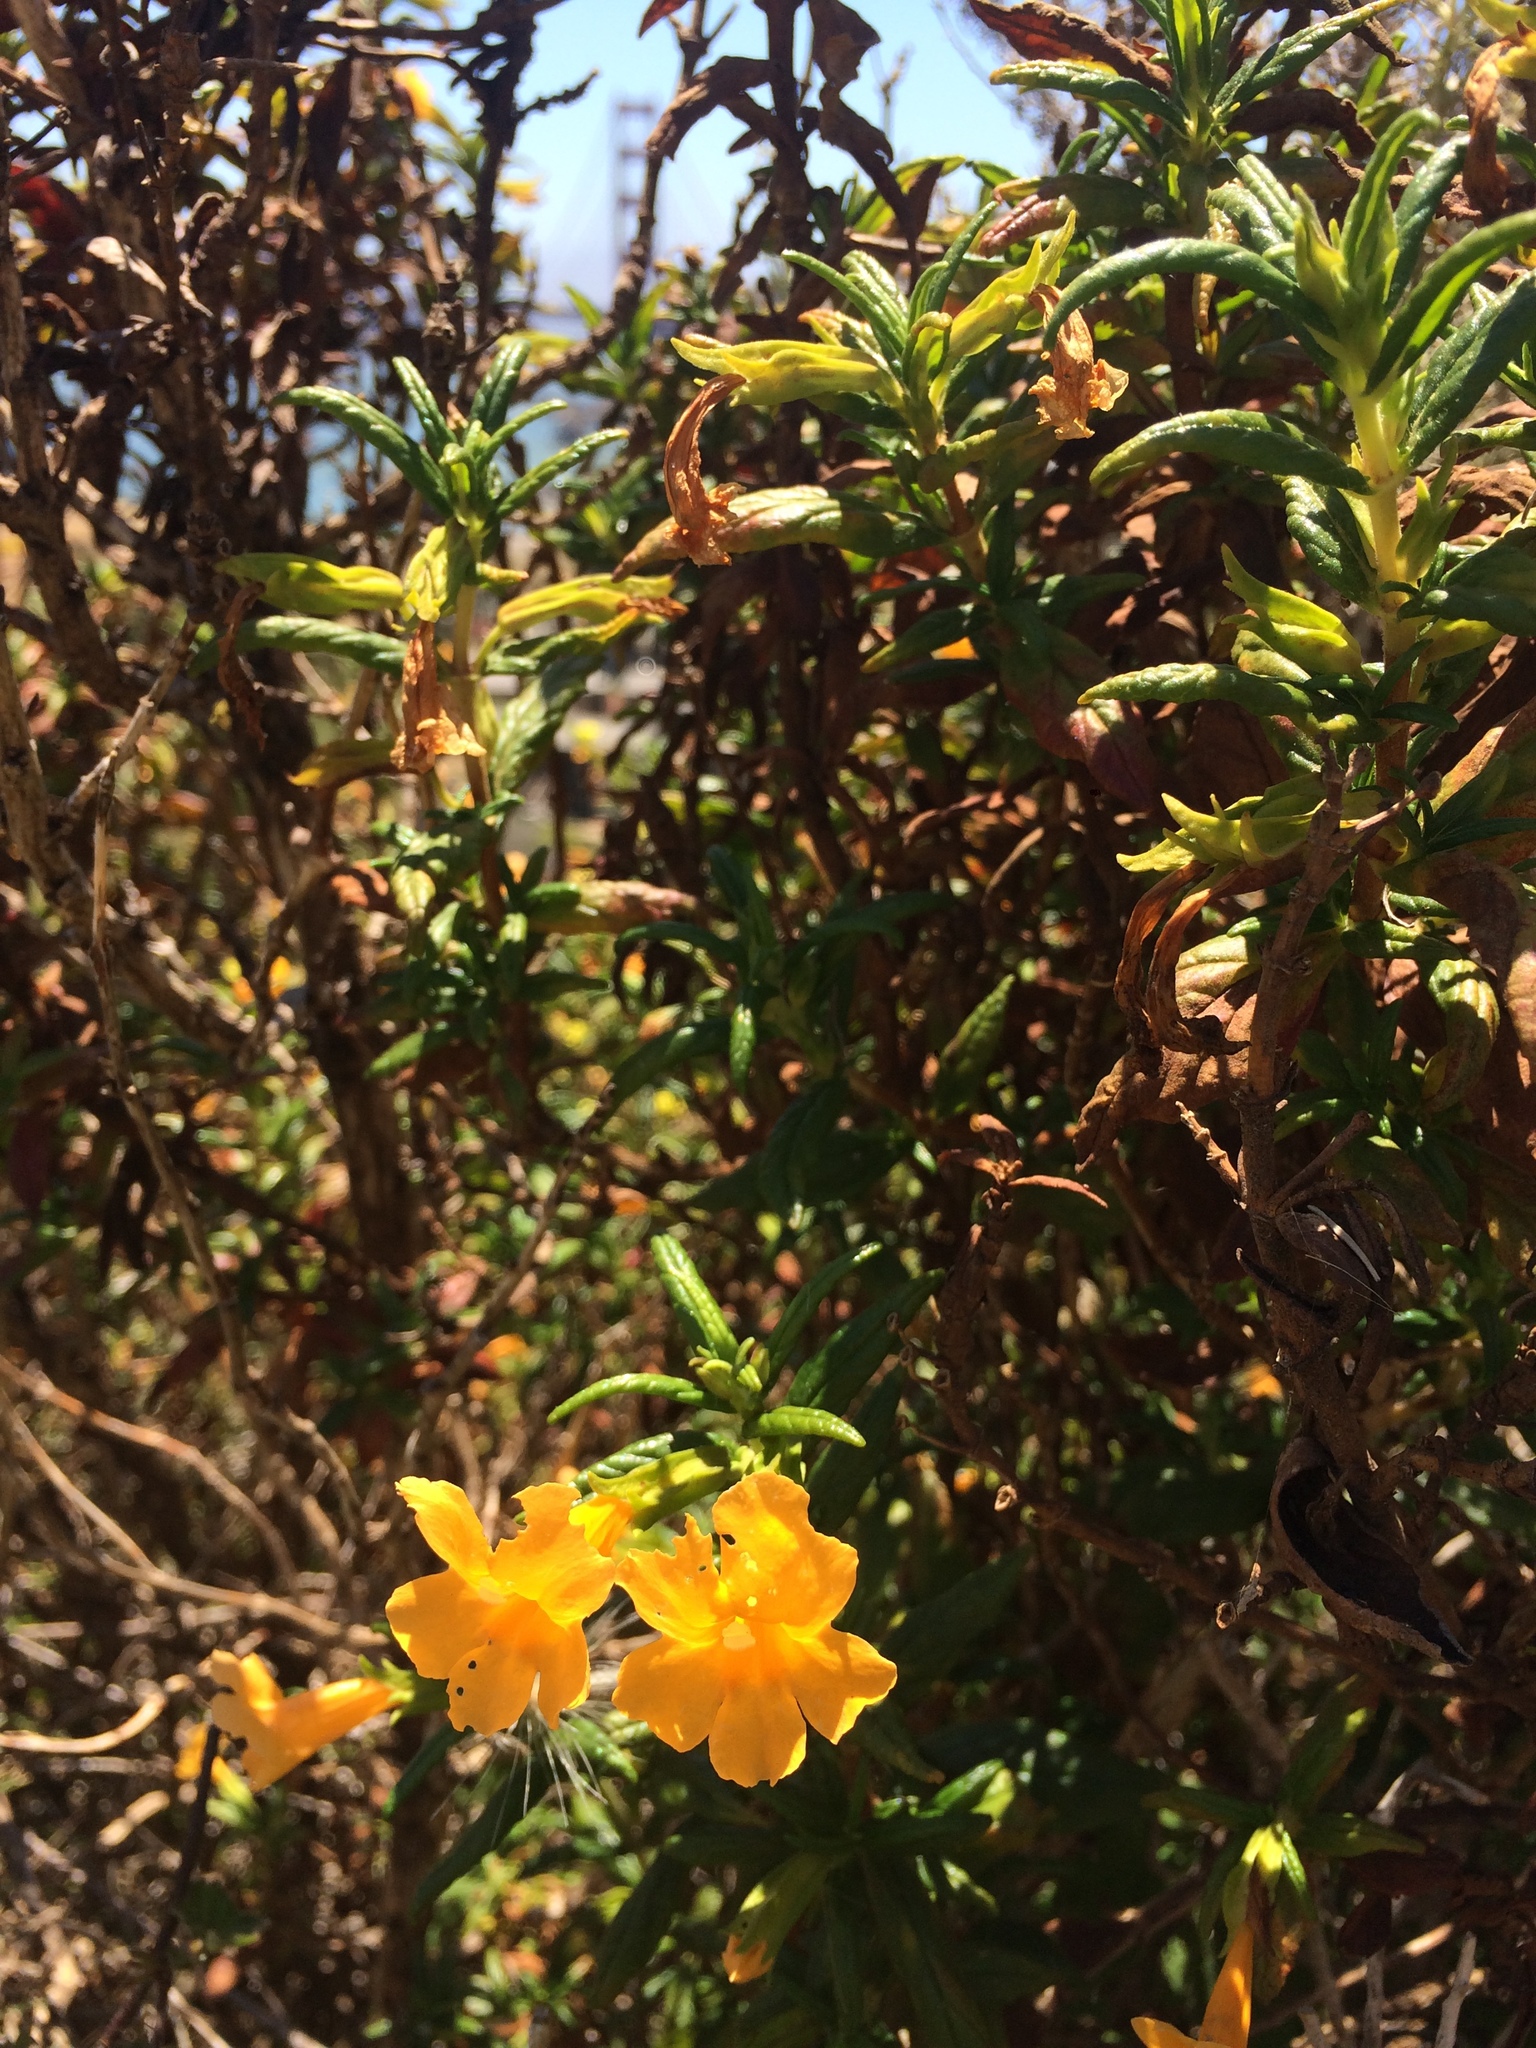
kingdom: Plantae
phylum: Tracheophyta
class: Magnoliopsida
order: Lamiales
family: Phrymaceae
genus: Diplacus
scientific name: Diplacus aurantiacus
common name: Bush monkey-flower
